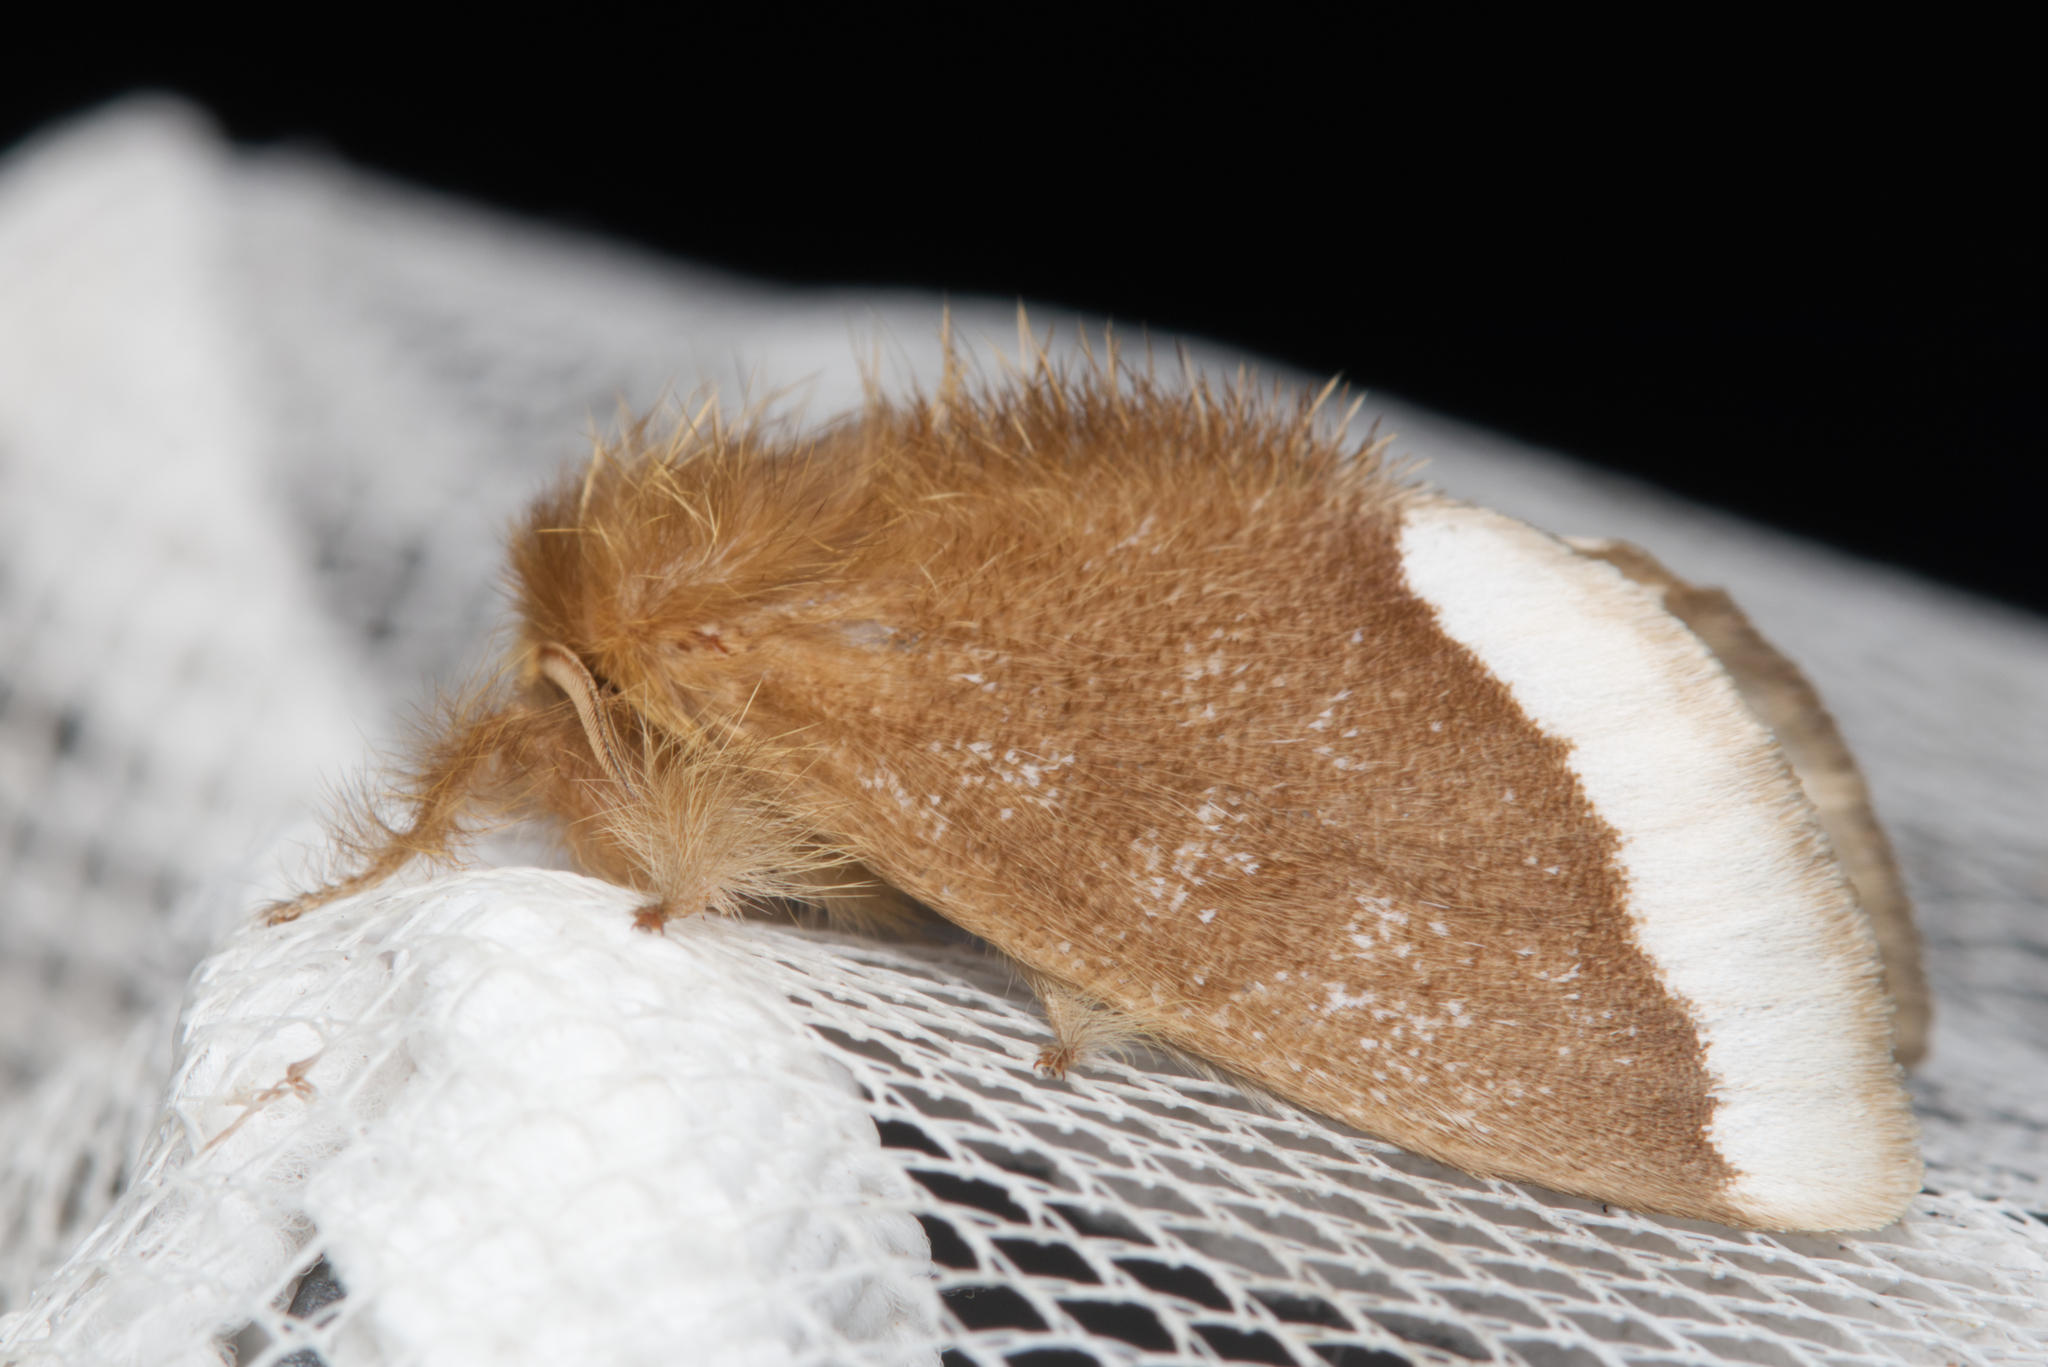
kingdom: Animalia
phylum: Arthropoda
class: Insecta
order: Lepidoptera
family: Erebidae
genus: Euproctis
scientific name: Euproctis
